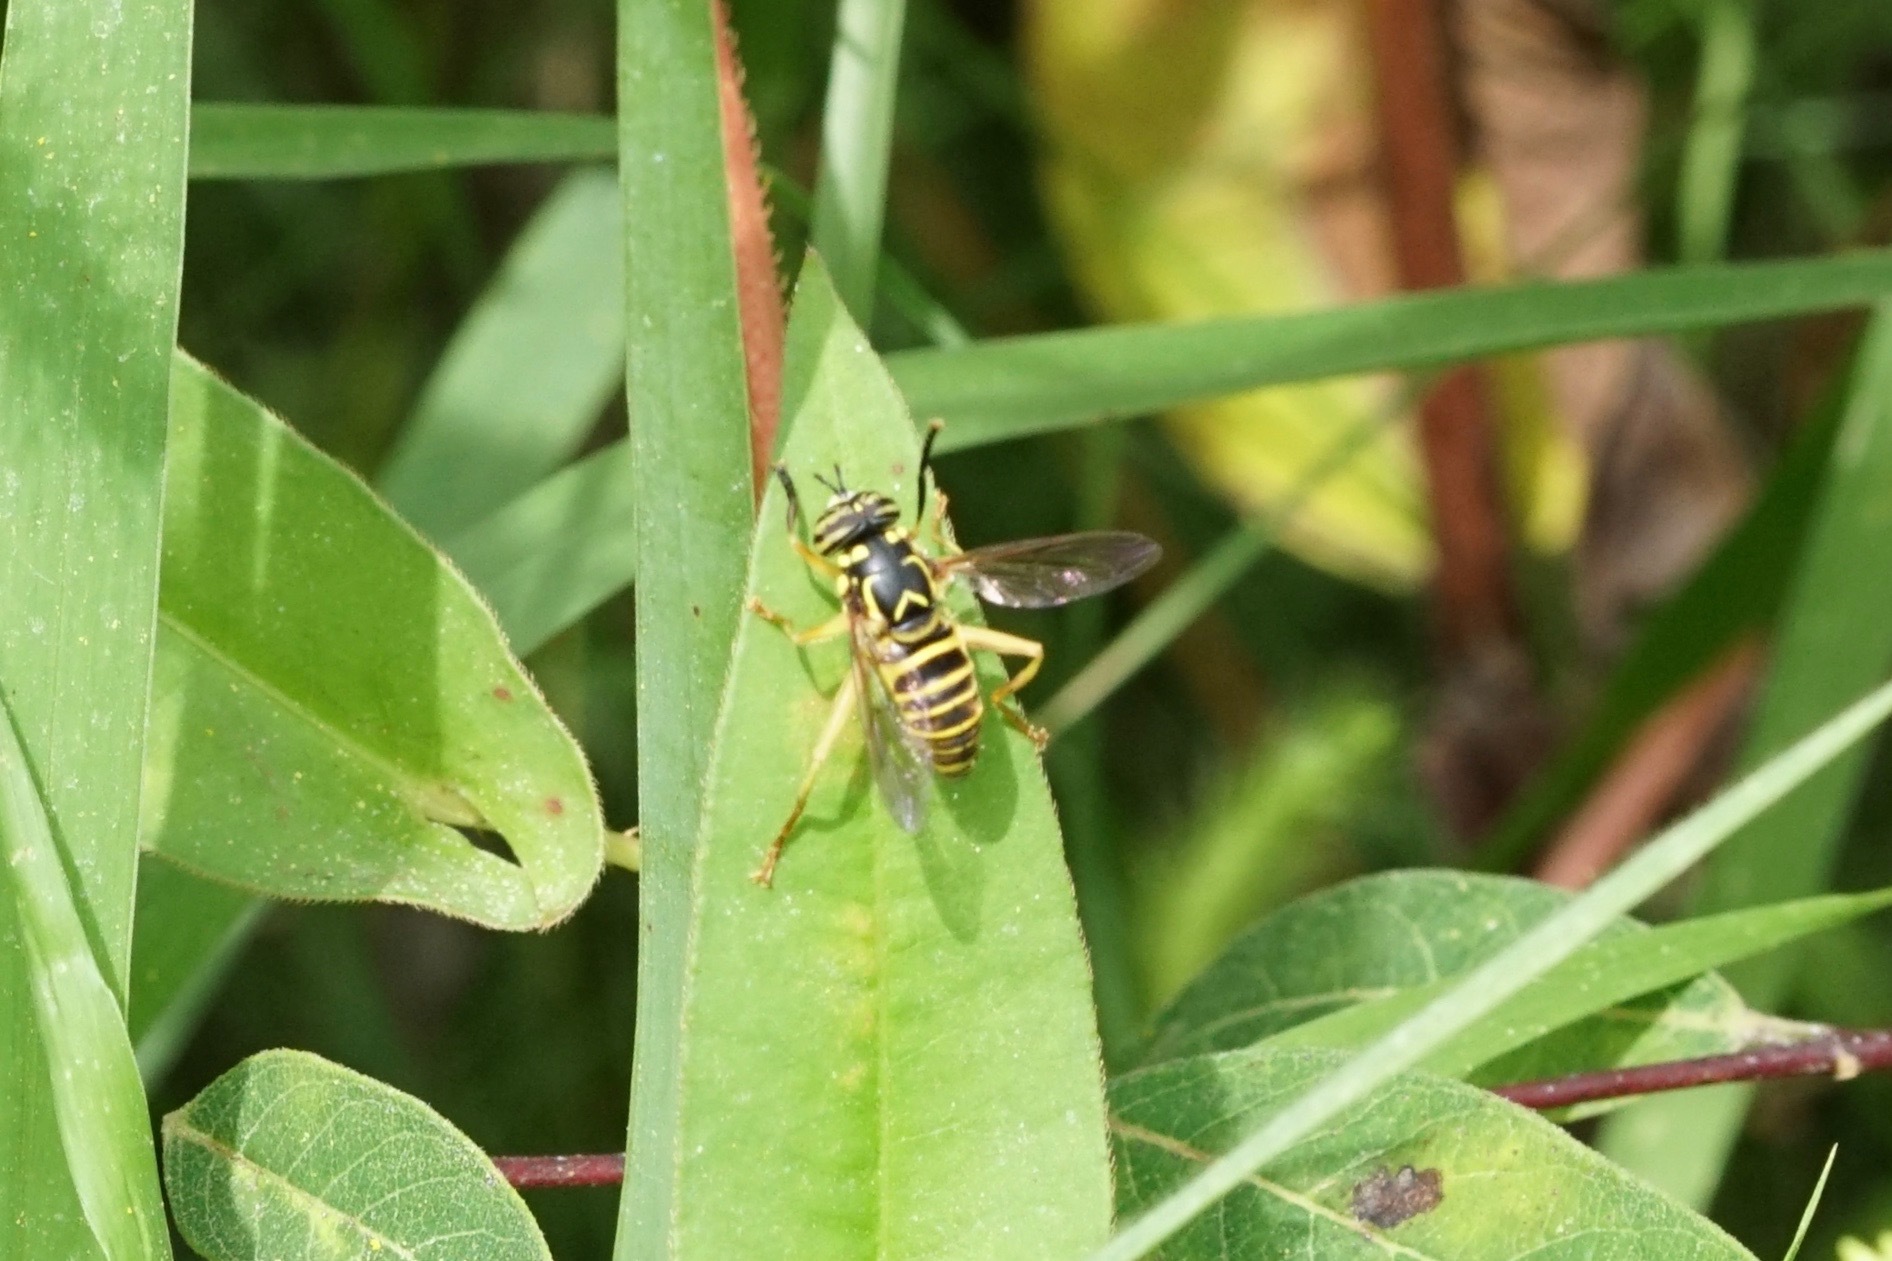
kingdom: Animalia
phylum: Arthropoda
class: Insecta
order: Diptera
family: Syrphidae
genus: Spilomyia
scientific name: Spilomyia longicornis
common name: Eastern hornet fly
